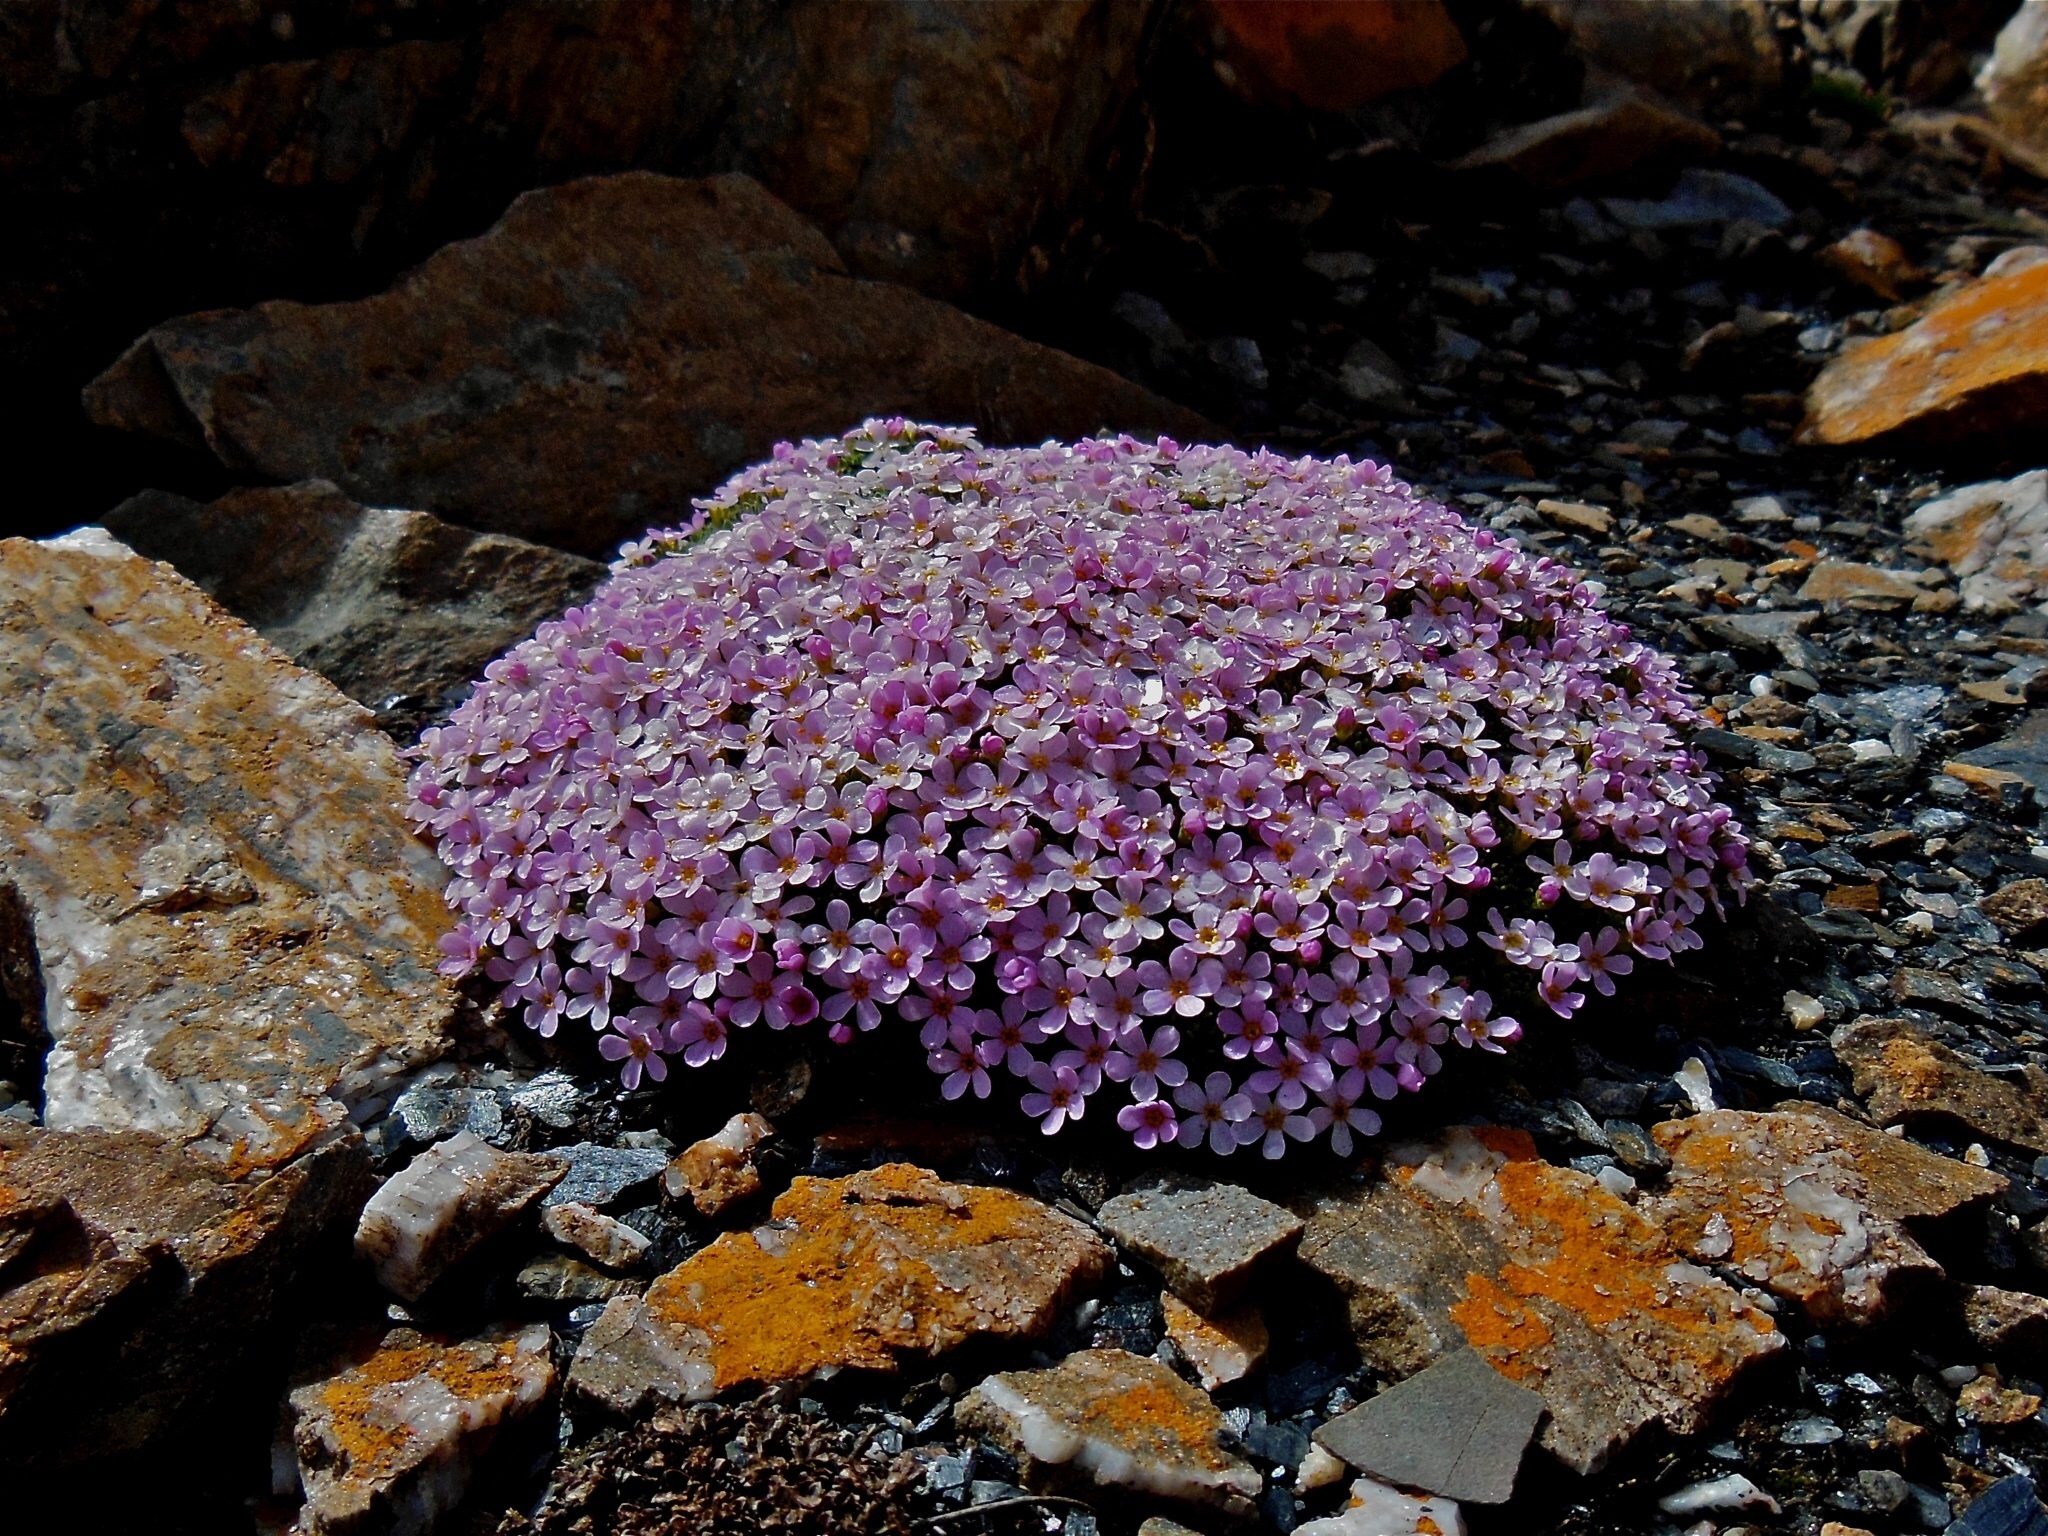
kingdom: Plantae
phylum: Tracheophyta
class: Magnoliopsida
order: Ericales
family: Primulaceae
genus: Androsace
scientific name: Androsace alpina
